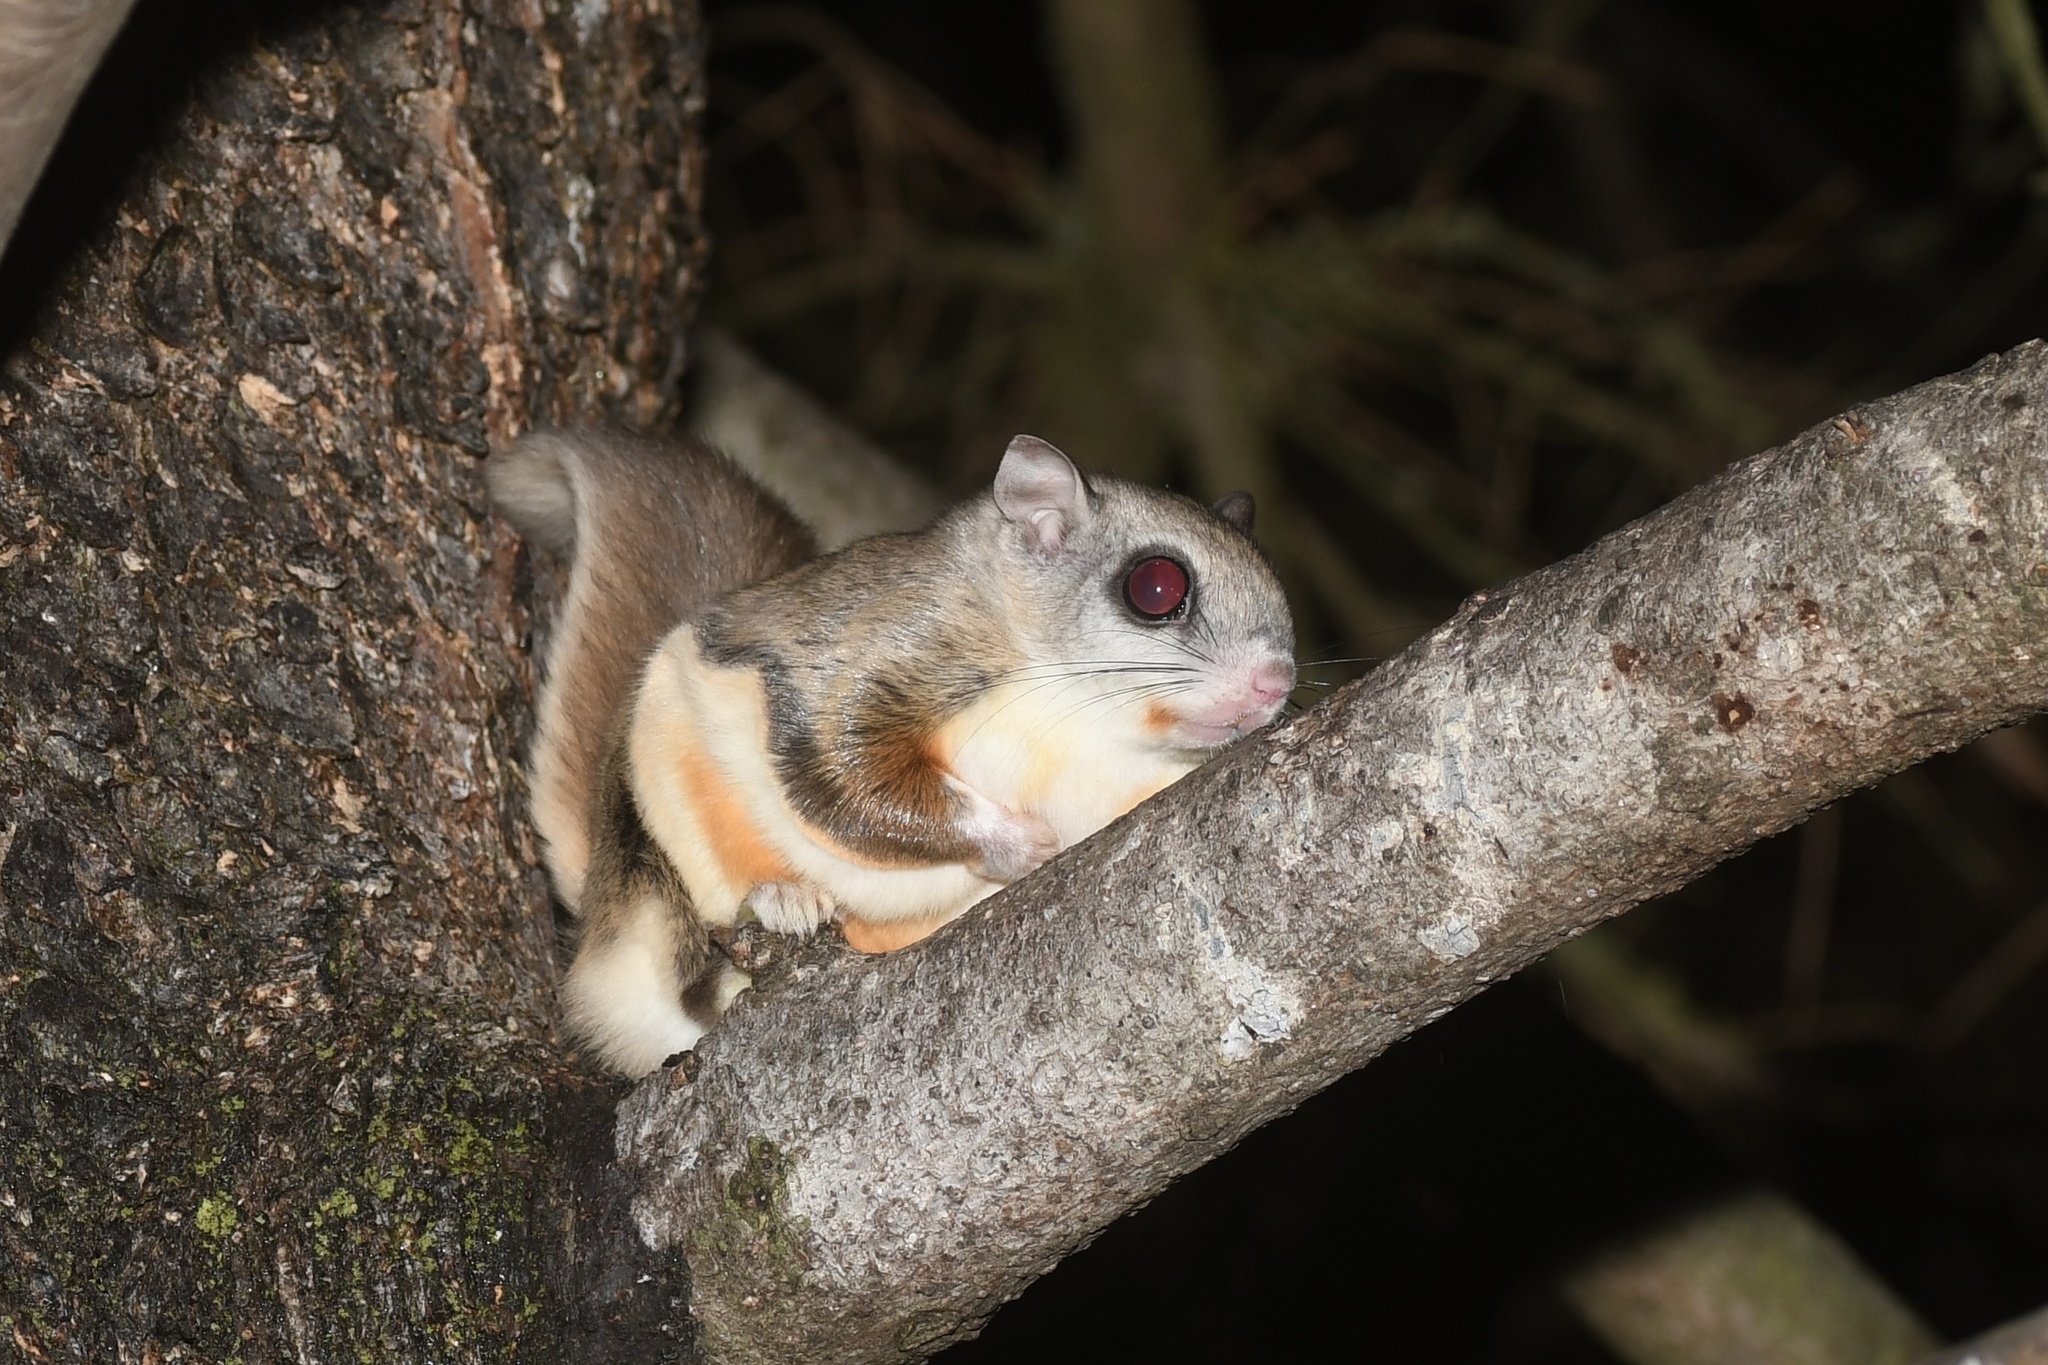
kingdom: Animalia
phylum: Chordata
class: Mammalia
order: Rodentia
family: Sciuridae
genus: Glaucomys
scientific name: Glaucomys sabrinus
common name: Northern flying squirrel
